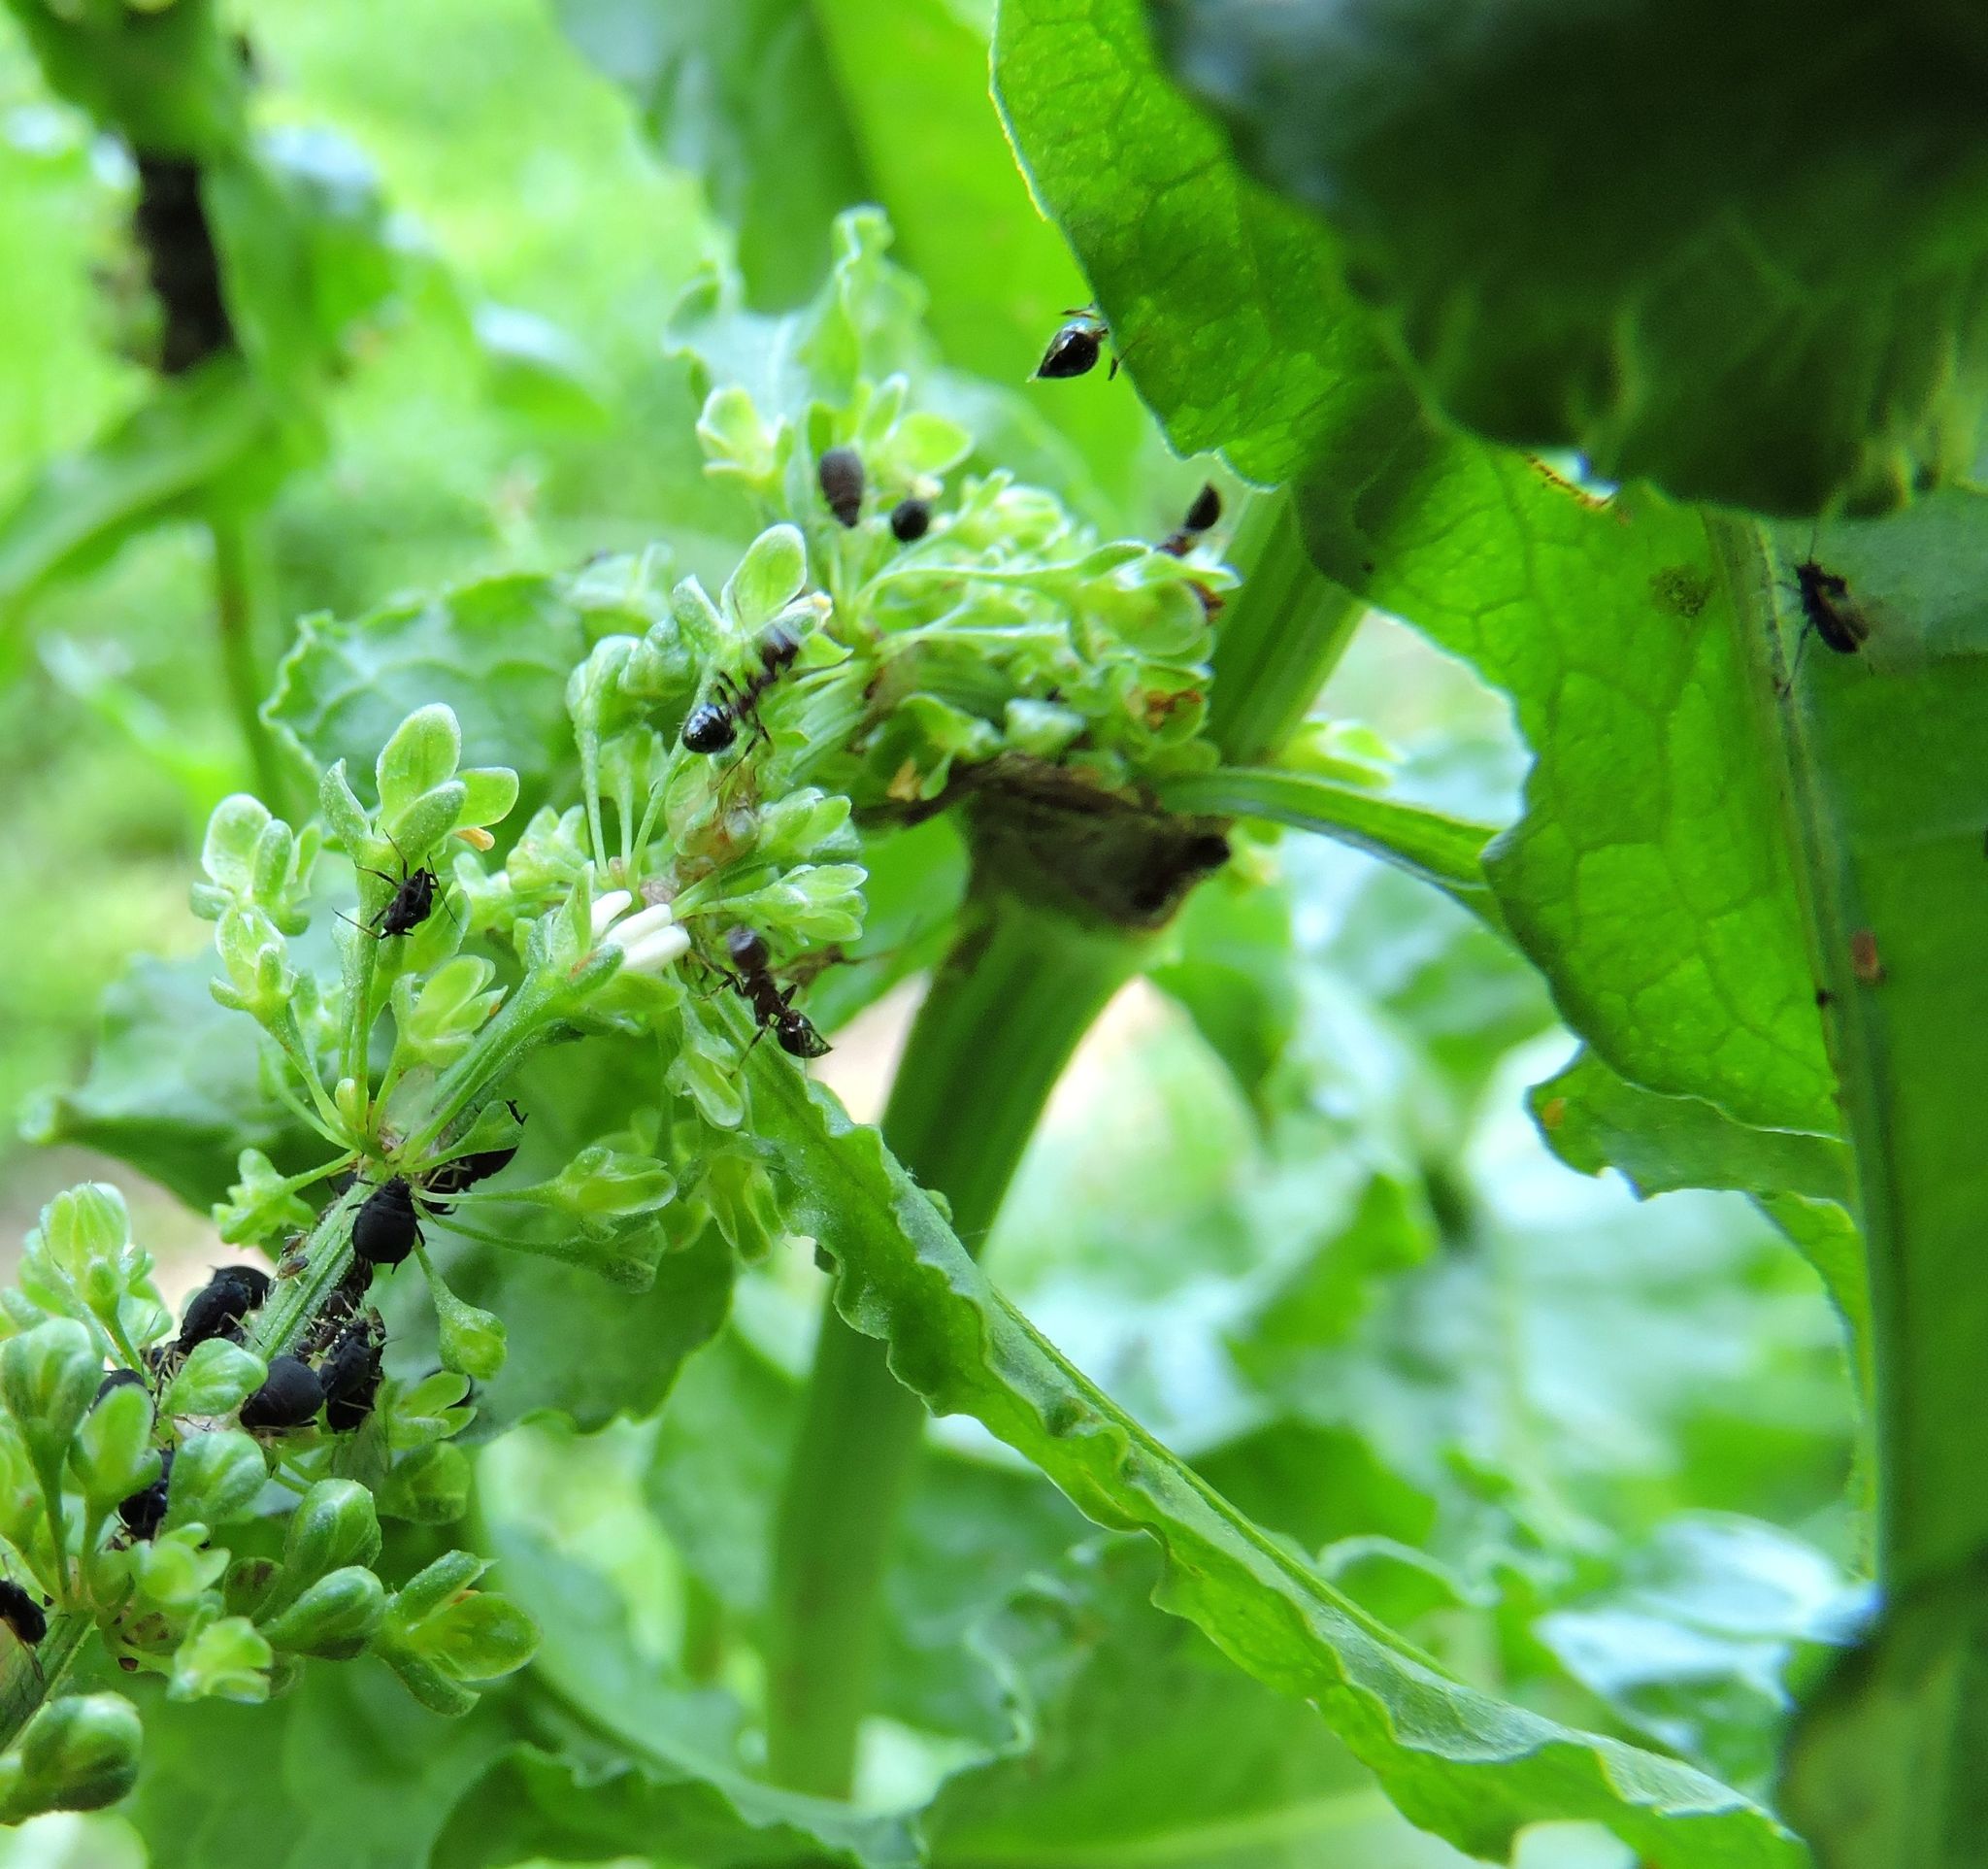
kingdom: Plantae
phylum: Tracheophyta
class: Magnoliopsida
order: Caryophyllales
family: Polygonaceae
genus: Rumex
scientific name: Rumex crispus
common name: Curled dock
